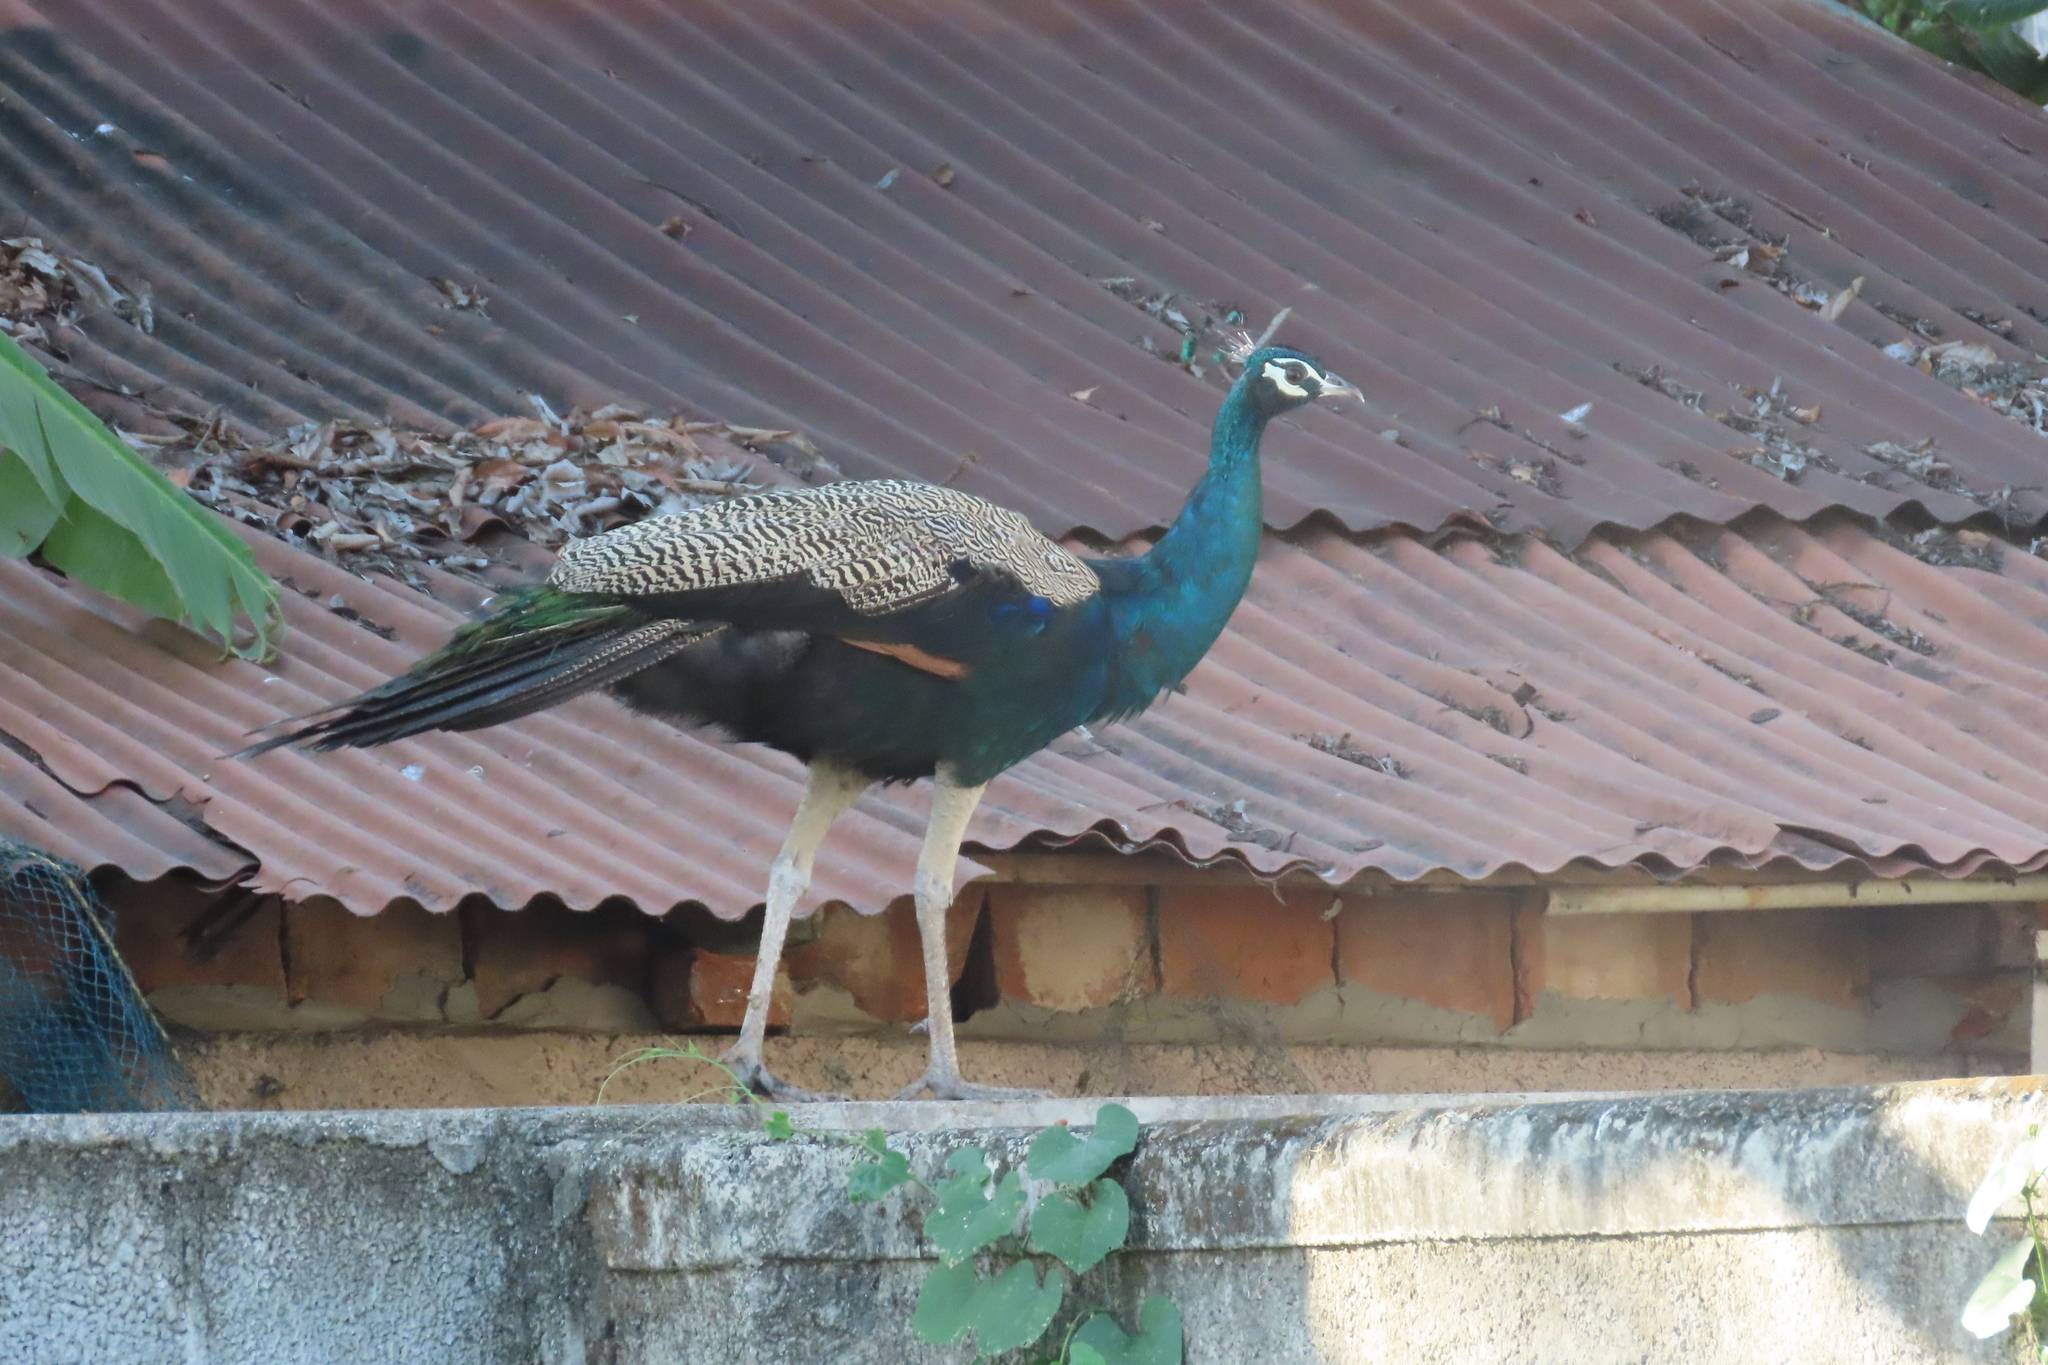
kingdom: Animalia
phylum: Chordata
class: Aves
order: Galliformes
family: Phasianidae
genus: Pavo
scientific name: Pavo cristatus
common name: Indian peafowl
